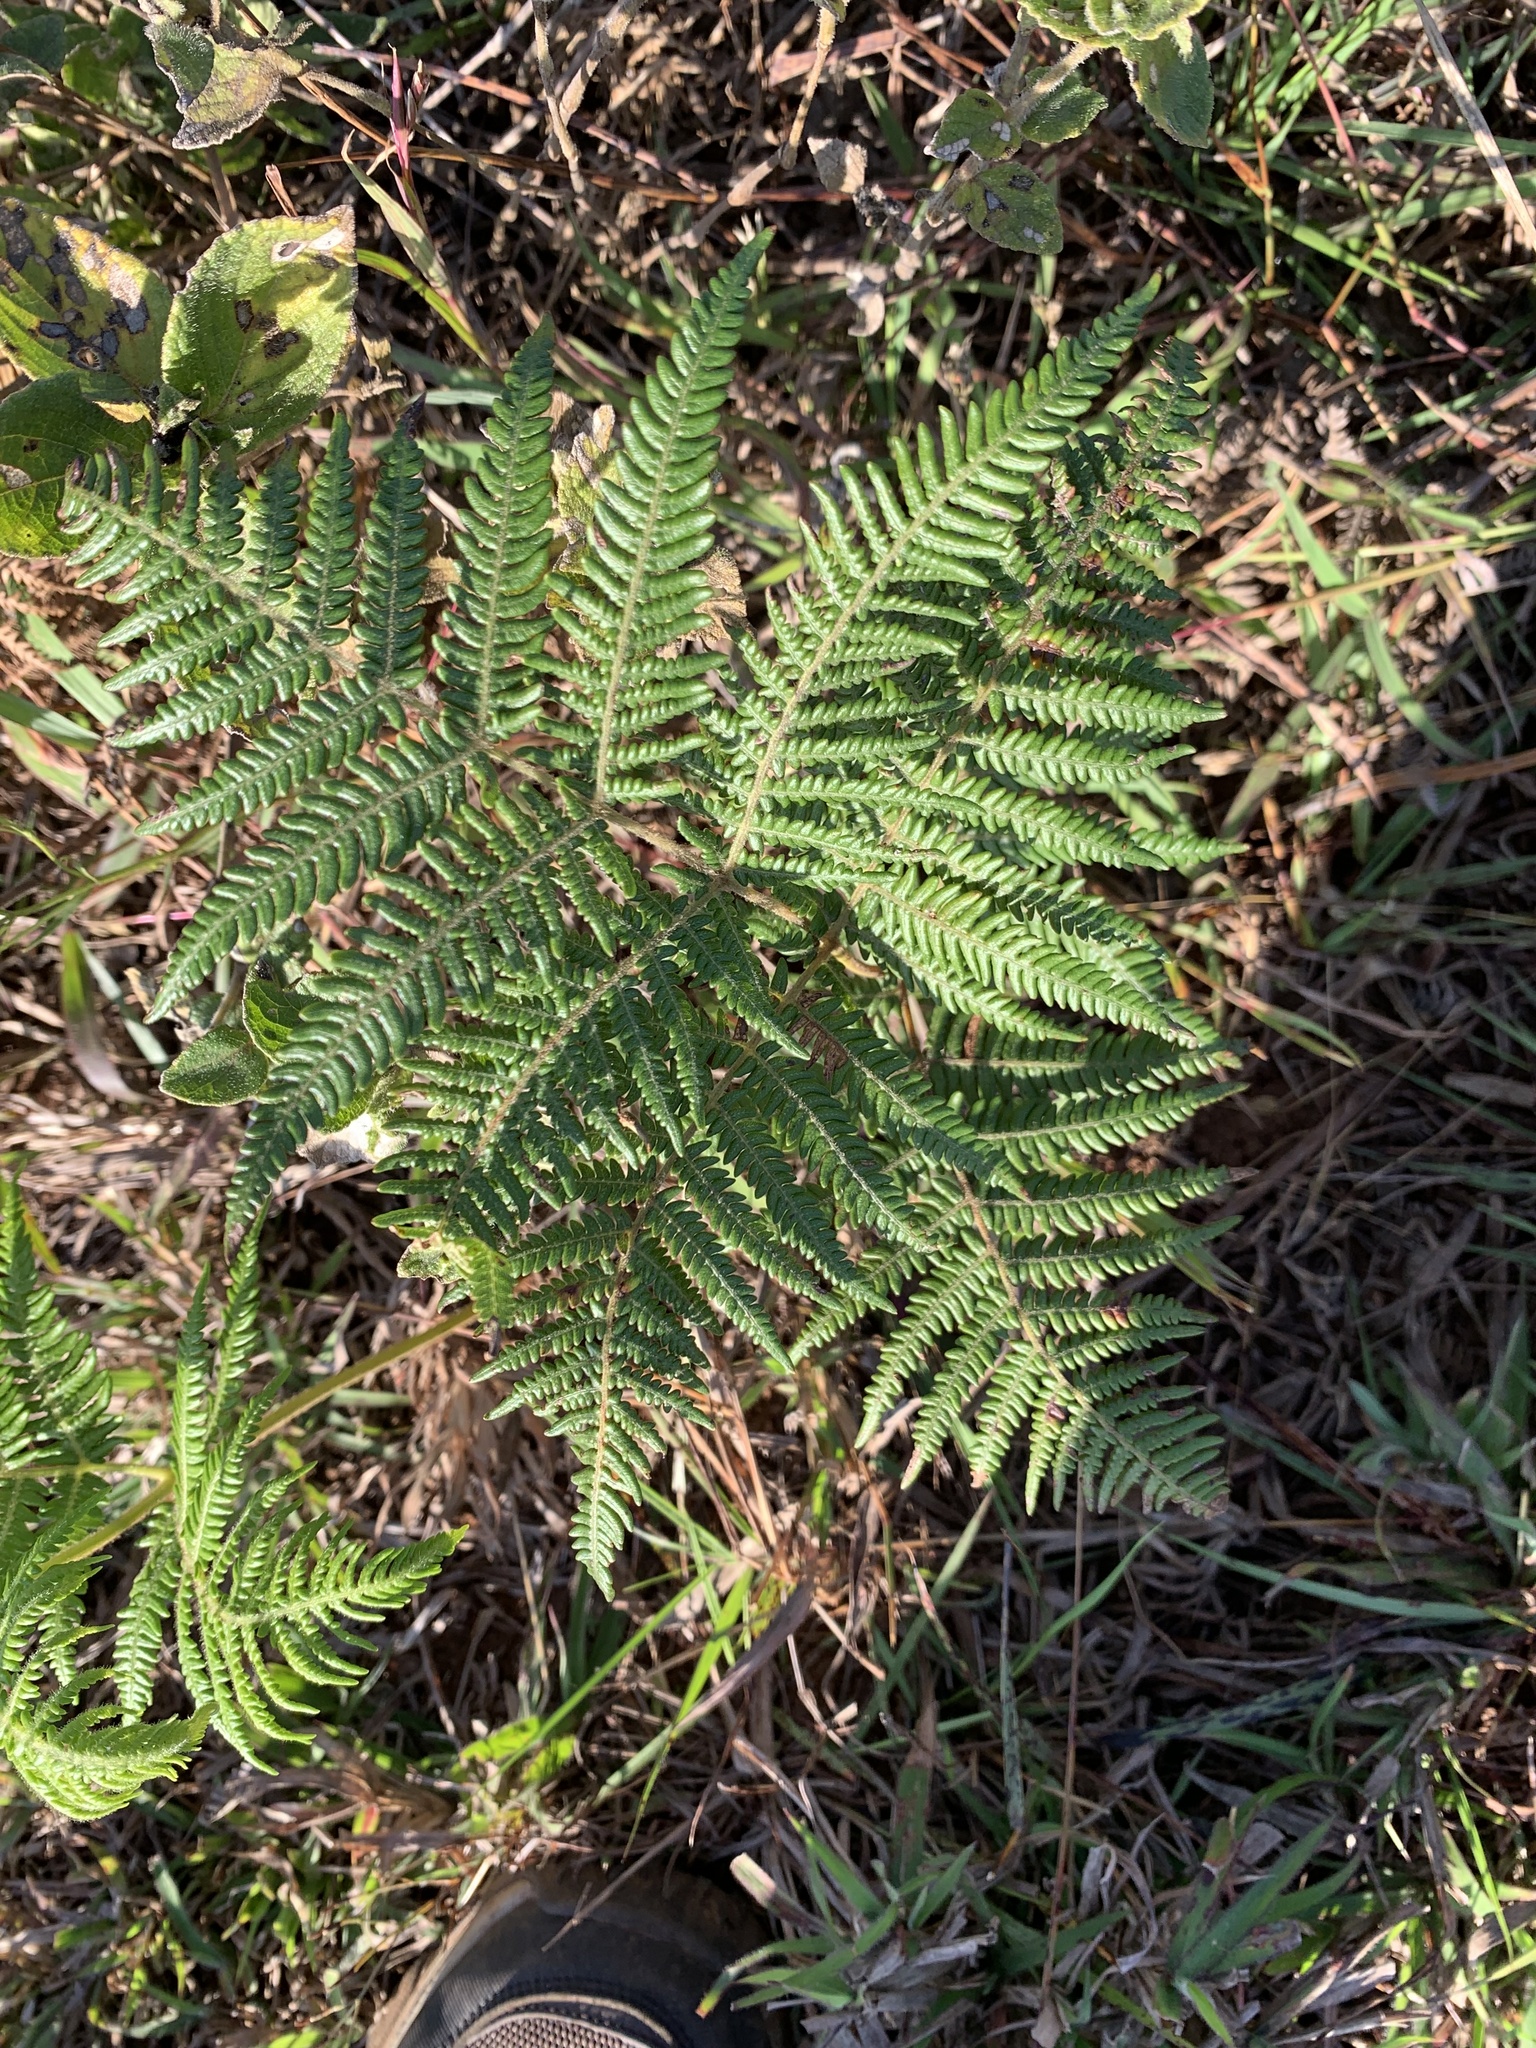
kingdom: Plantae
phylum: Tracheophyta
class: Polypodiopsida
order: Polypodiales
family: Dennstaedtiaceae
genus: Pteridium
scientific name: Pteridium aquilinum
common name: Bracken
